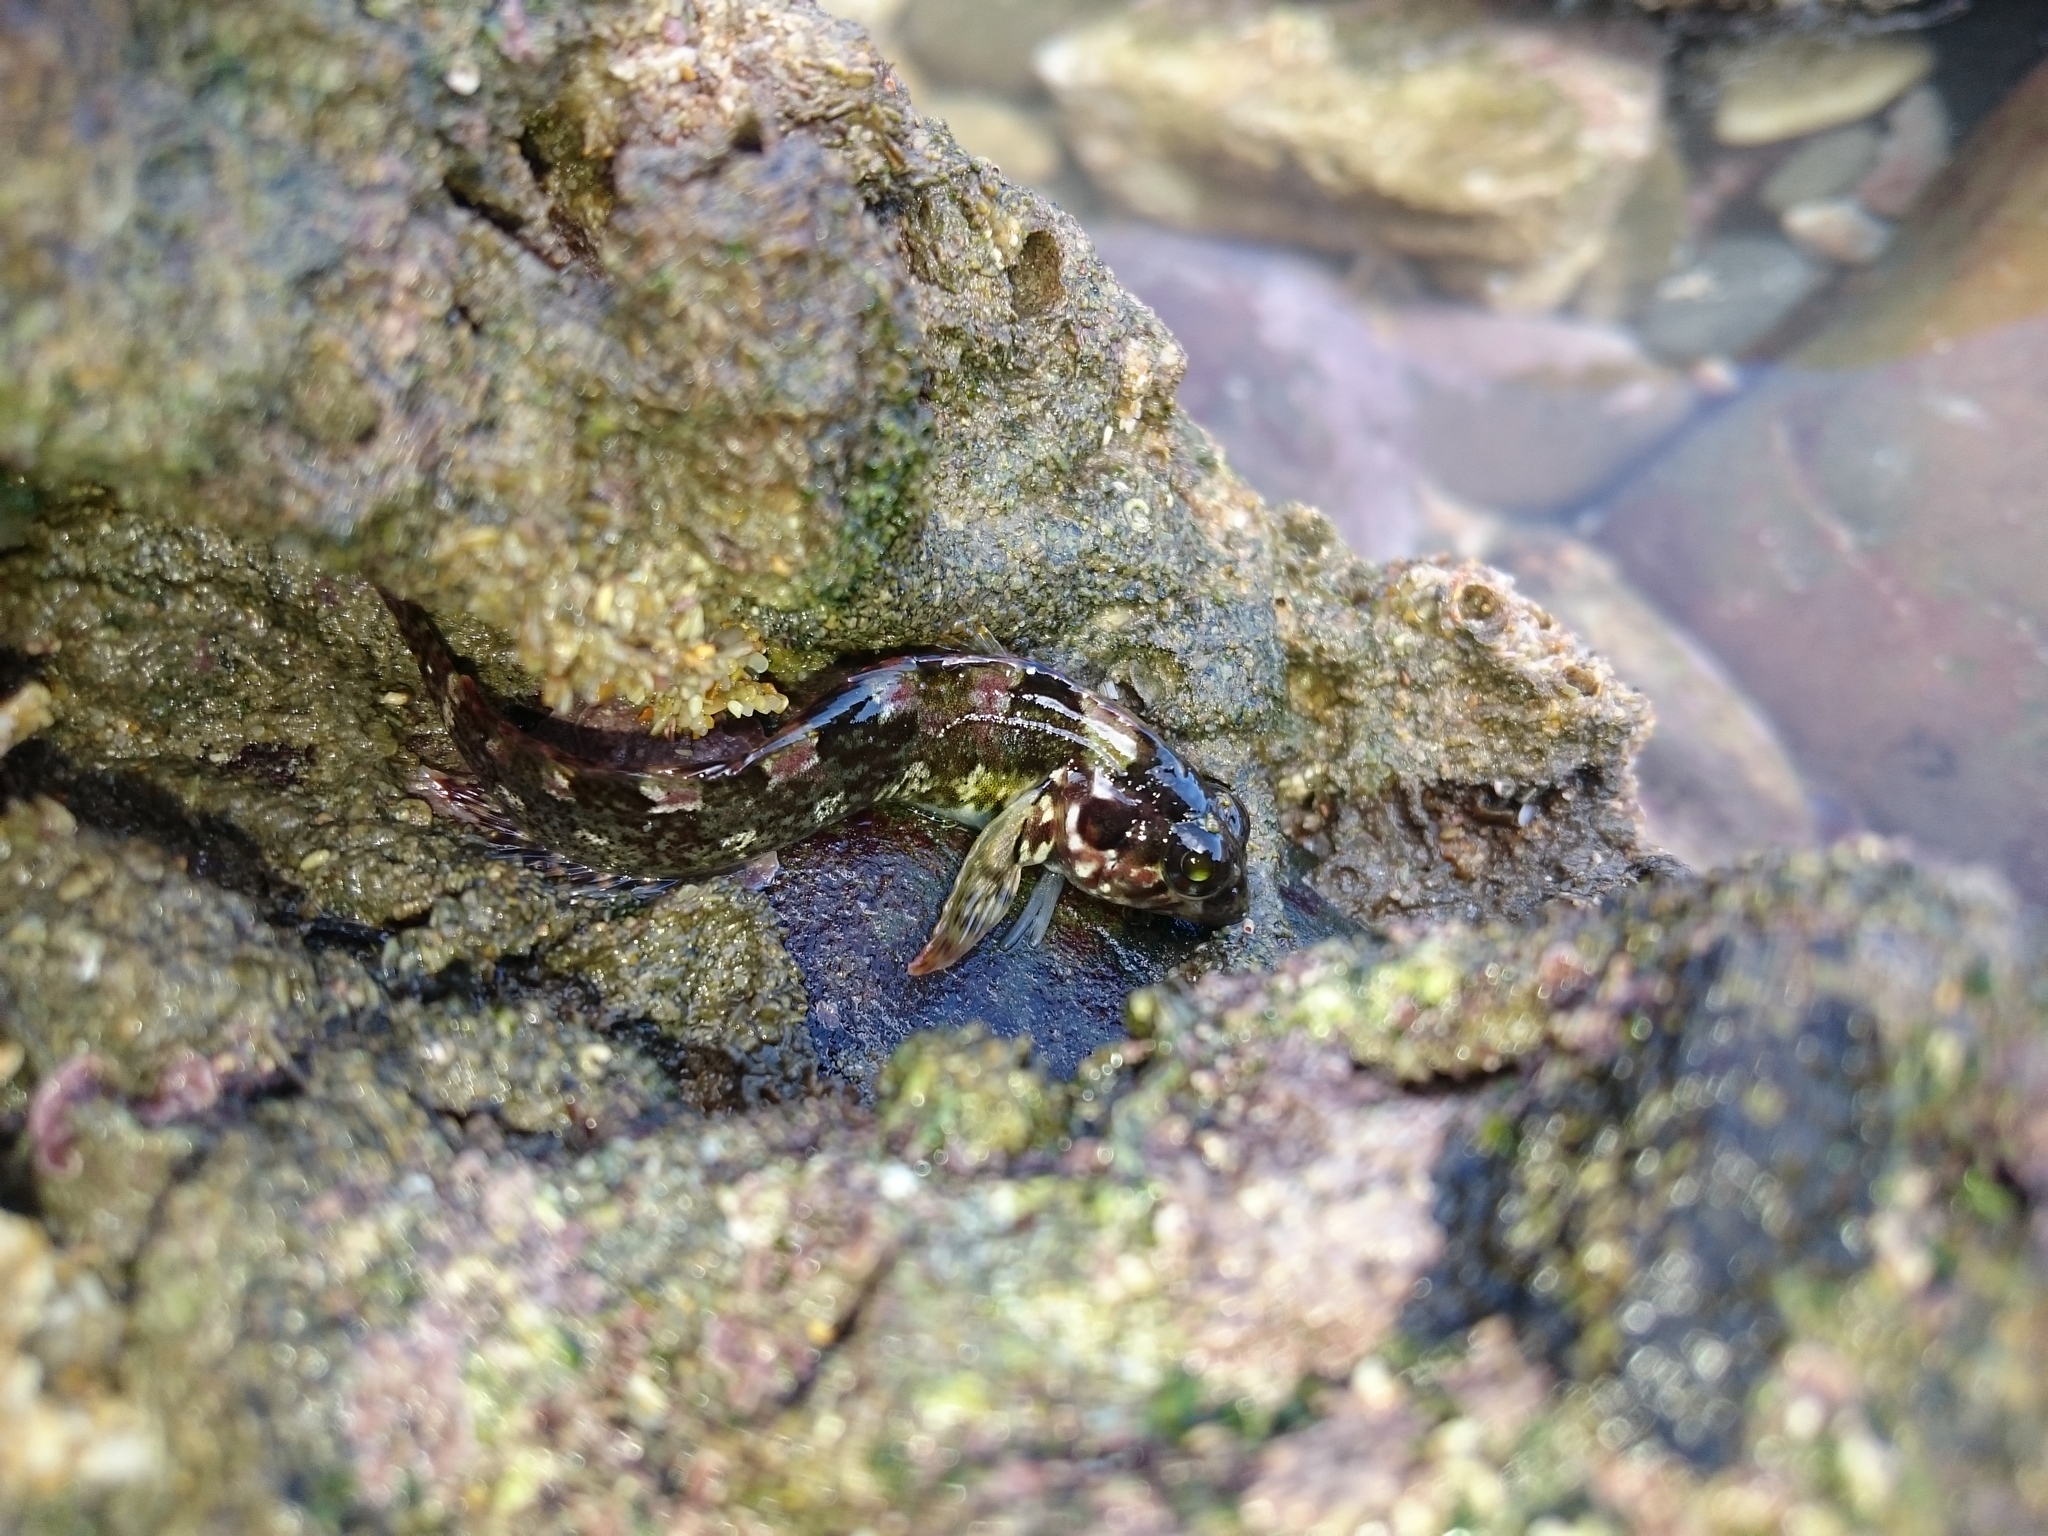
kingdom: Animalia
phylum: Chordata
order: Perciformes
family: Clinidae
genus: Clinus
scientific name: Clinus cottoides
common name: Bluntnose klipfish
